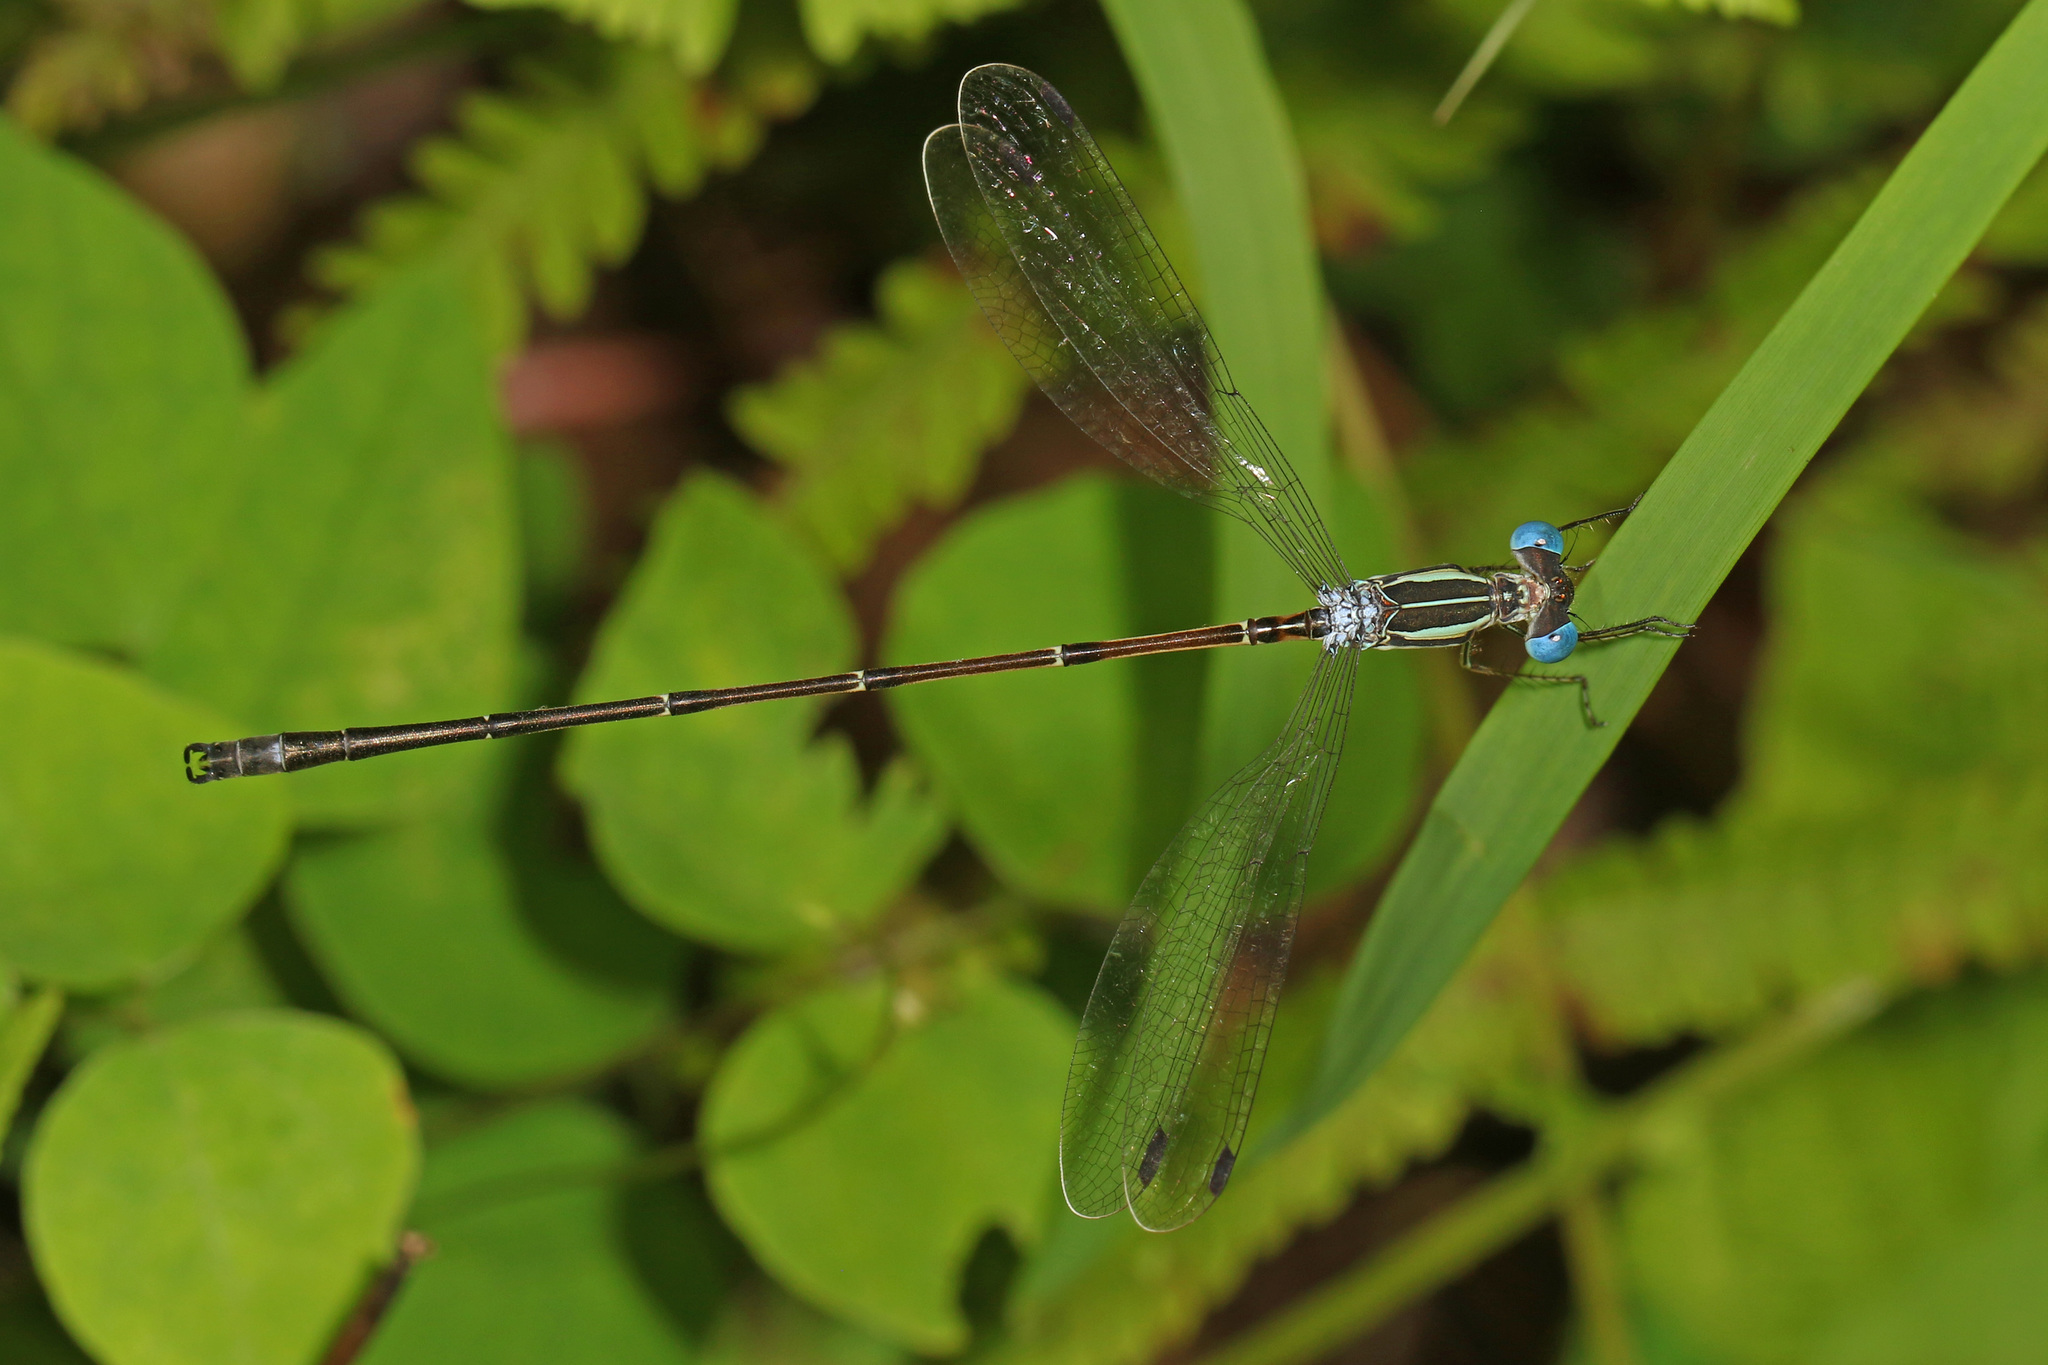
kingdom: Animalia
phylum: Arthropoda
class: Insecta
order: Odonata
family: Lestidae
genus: Lestes
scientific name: Lestes rectangularis
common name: Slender spreadwing
